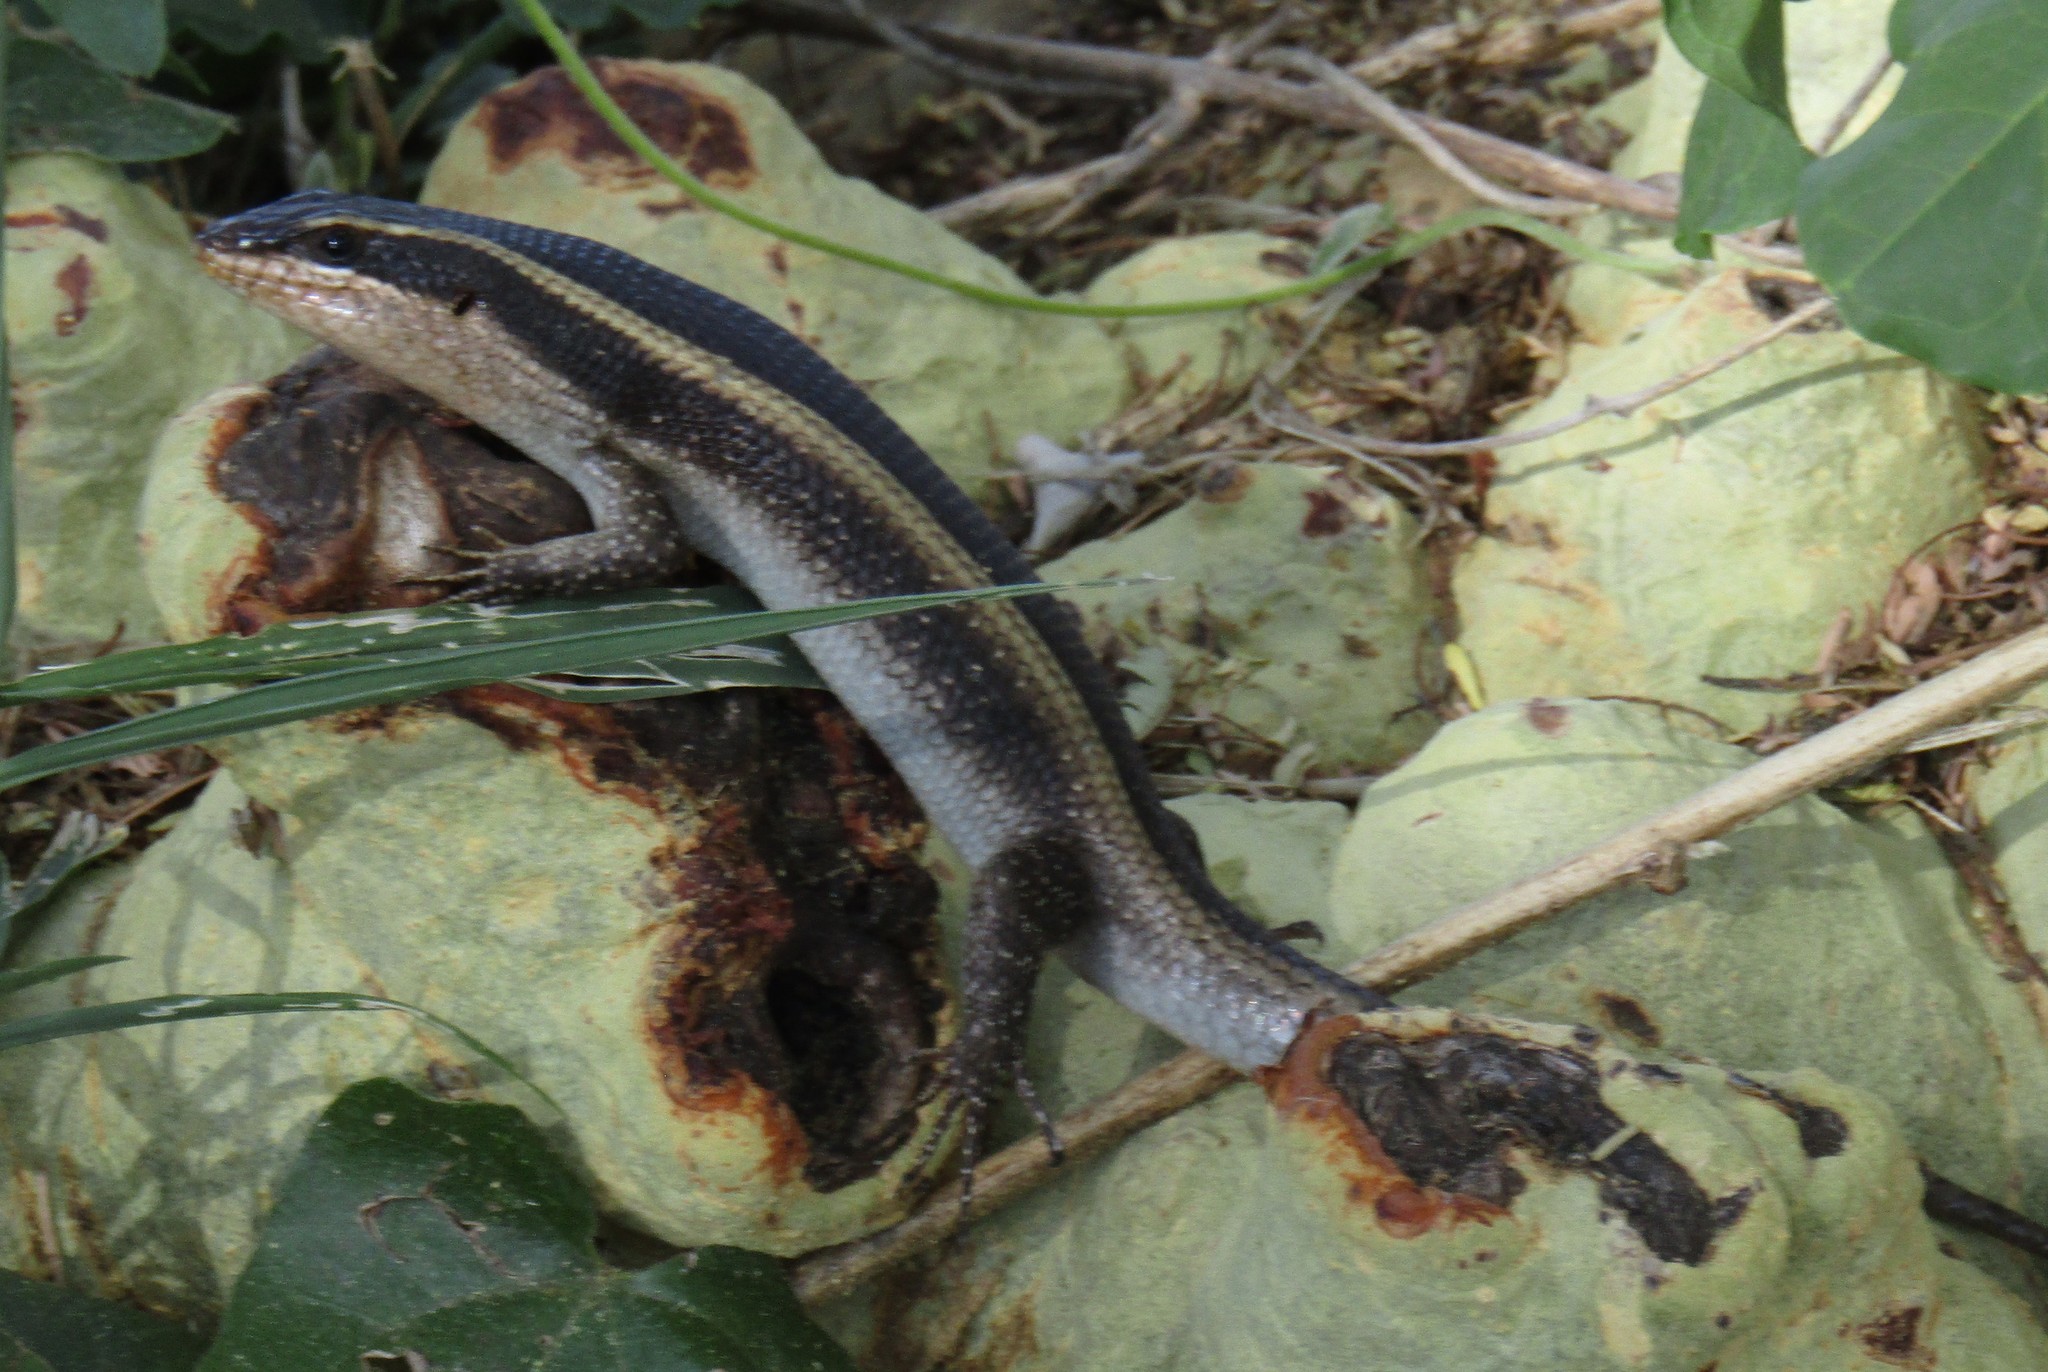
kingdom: Animalia
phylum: Chordata
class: Squamata
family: Scincidae
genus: Trachylepis
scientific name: Trachylepis striata
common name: African striped mabuya
